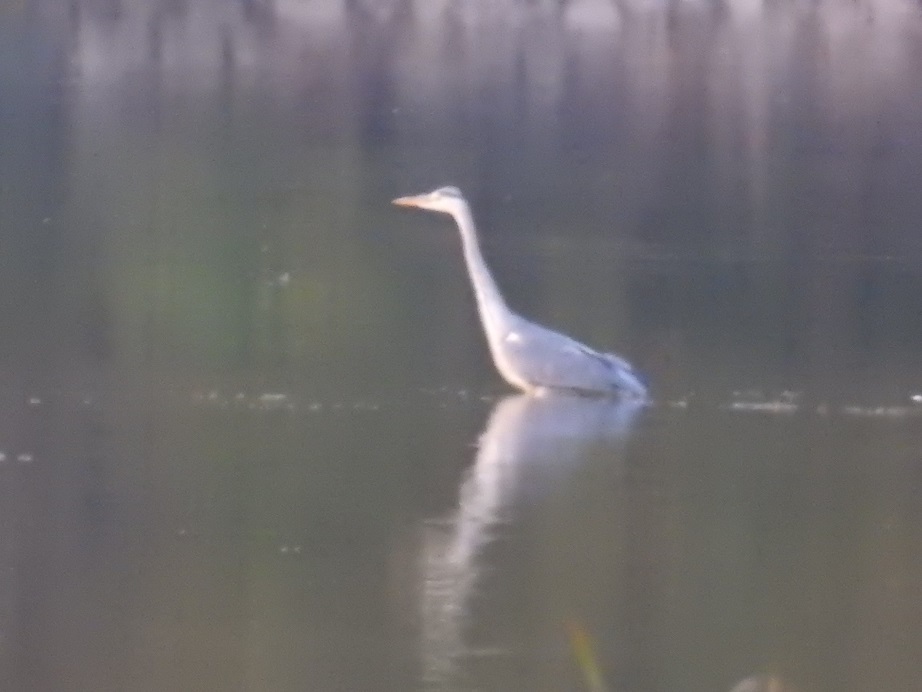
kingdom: Animalia
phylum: Chordata
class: Aves
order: Pelecaniformes
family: Ardeidae
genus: Ardea
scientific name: Ardea cinerea
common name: Grey heron
